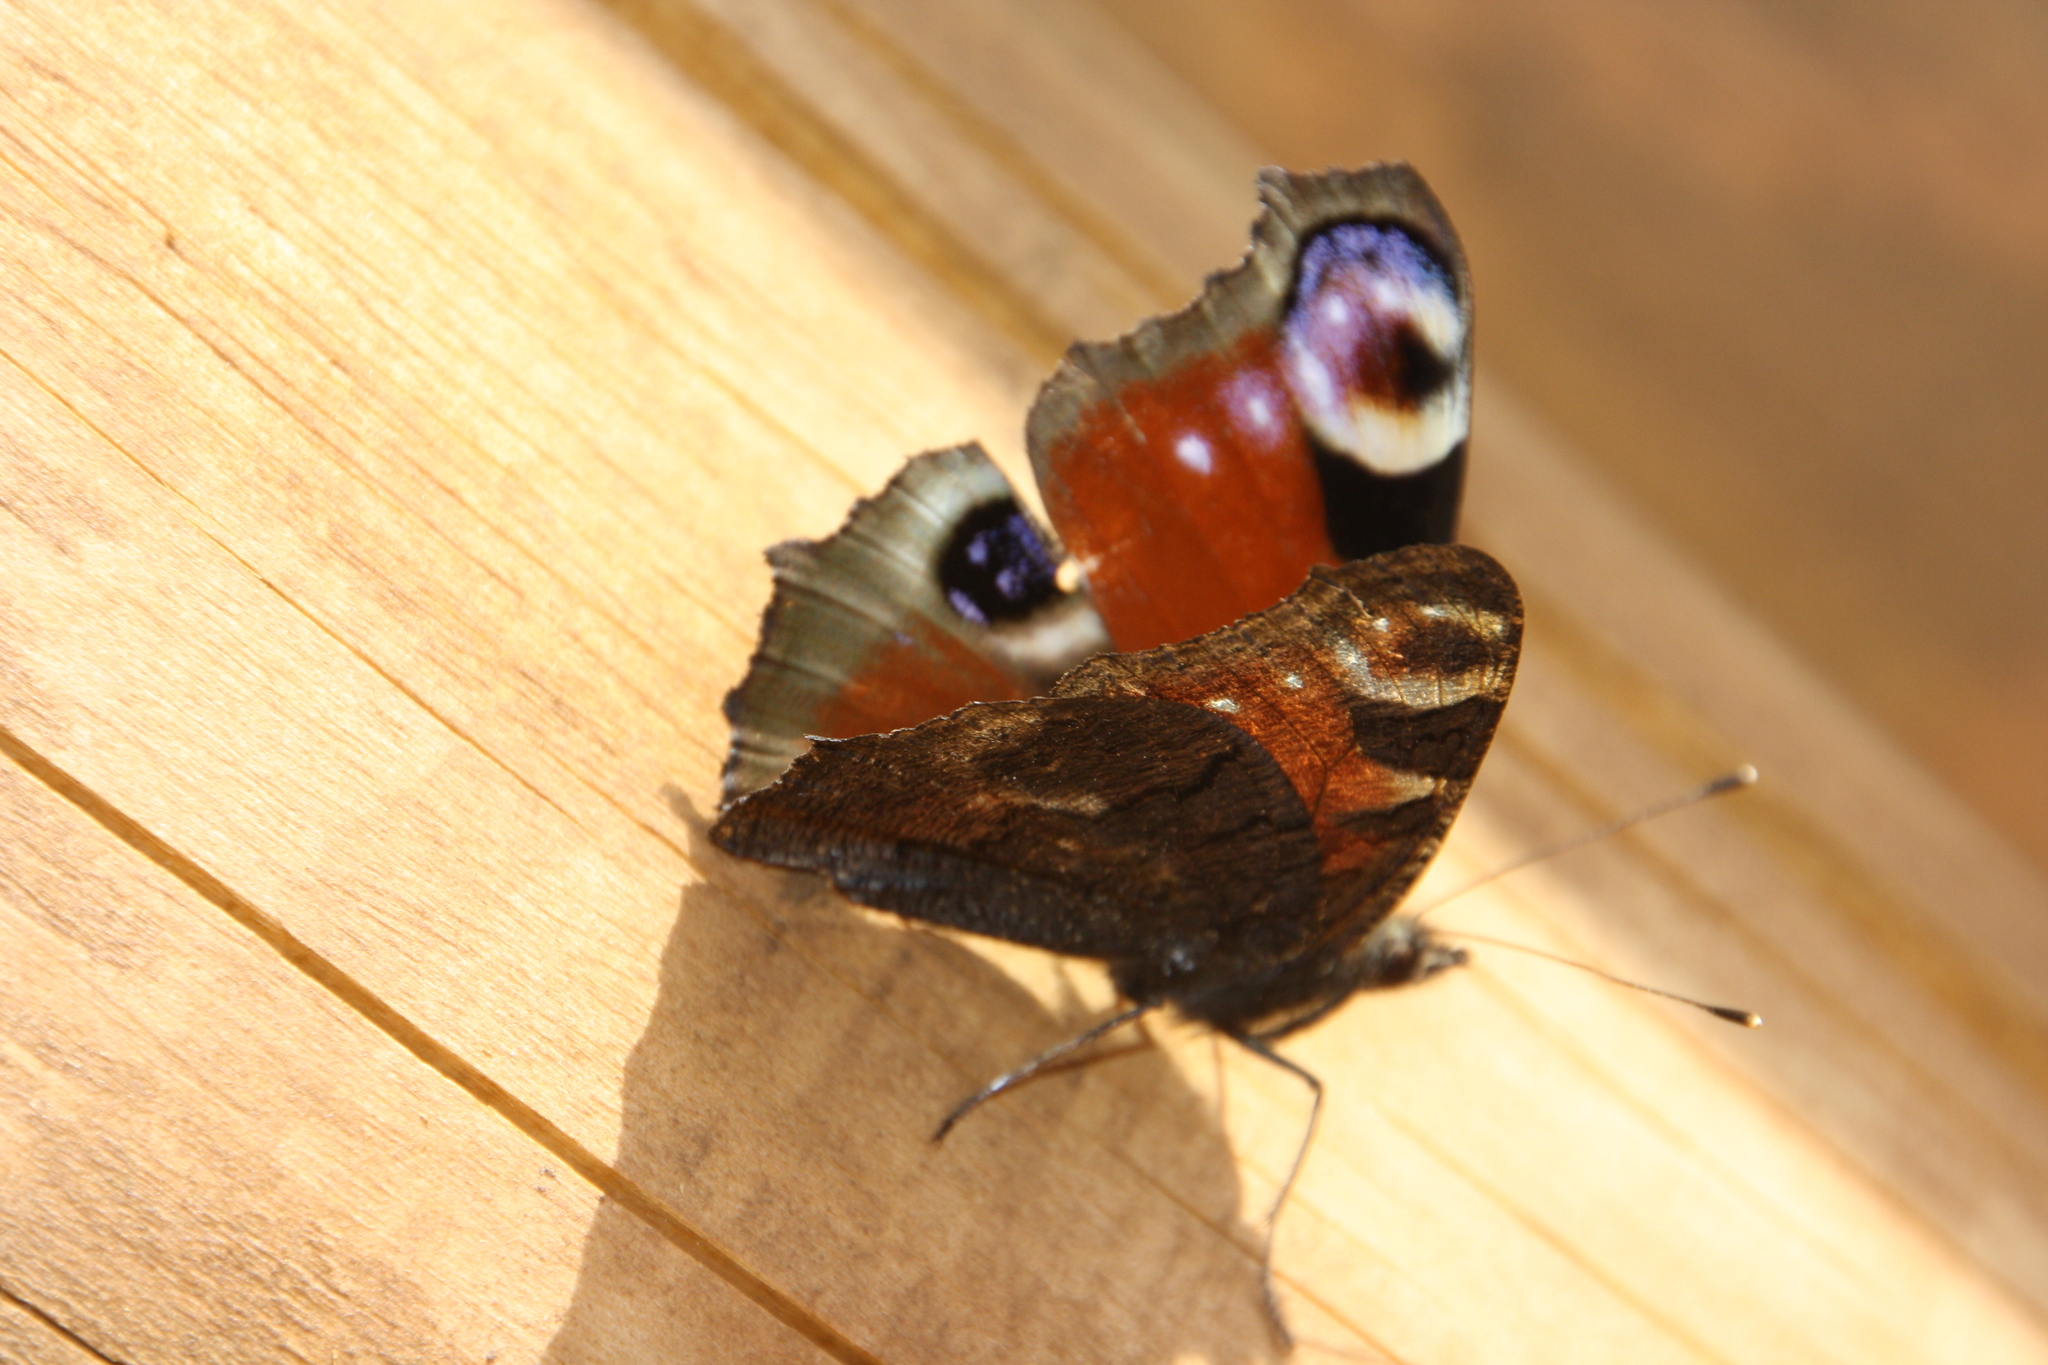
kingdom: Animalia
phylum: Arthropoda
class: Insecta
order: Lepidoptera
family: Nymphalidae
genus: Aglais
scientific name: Aglais io
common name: Peacock
